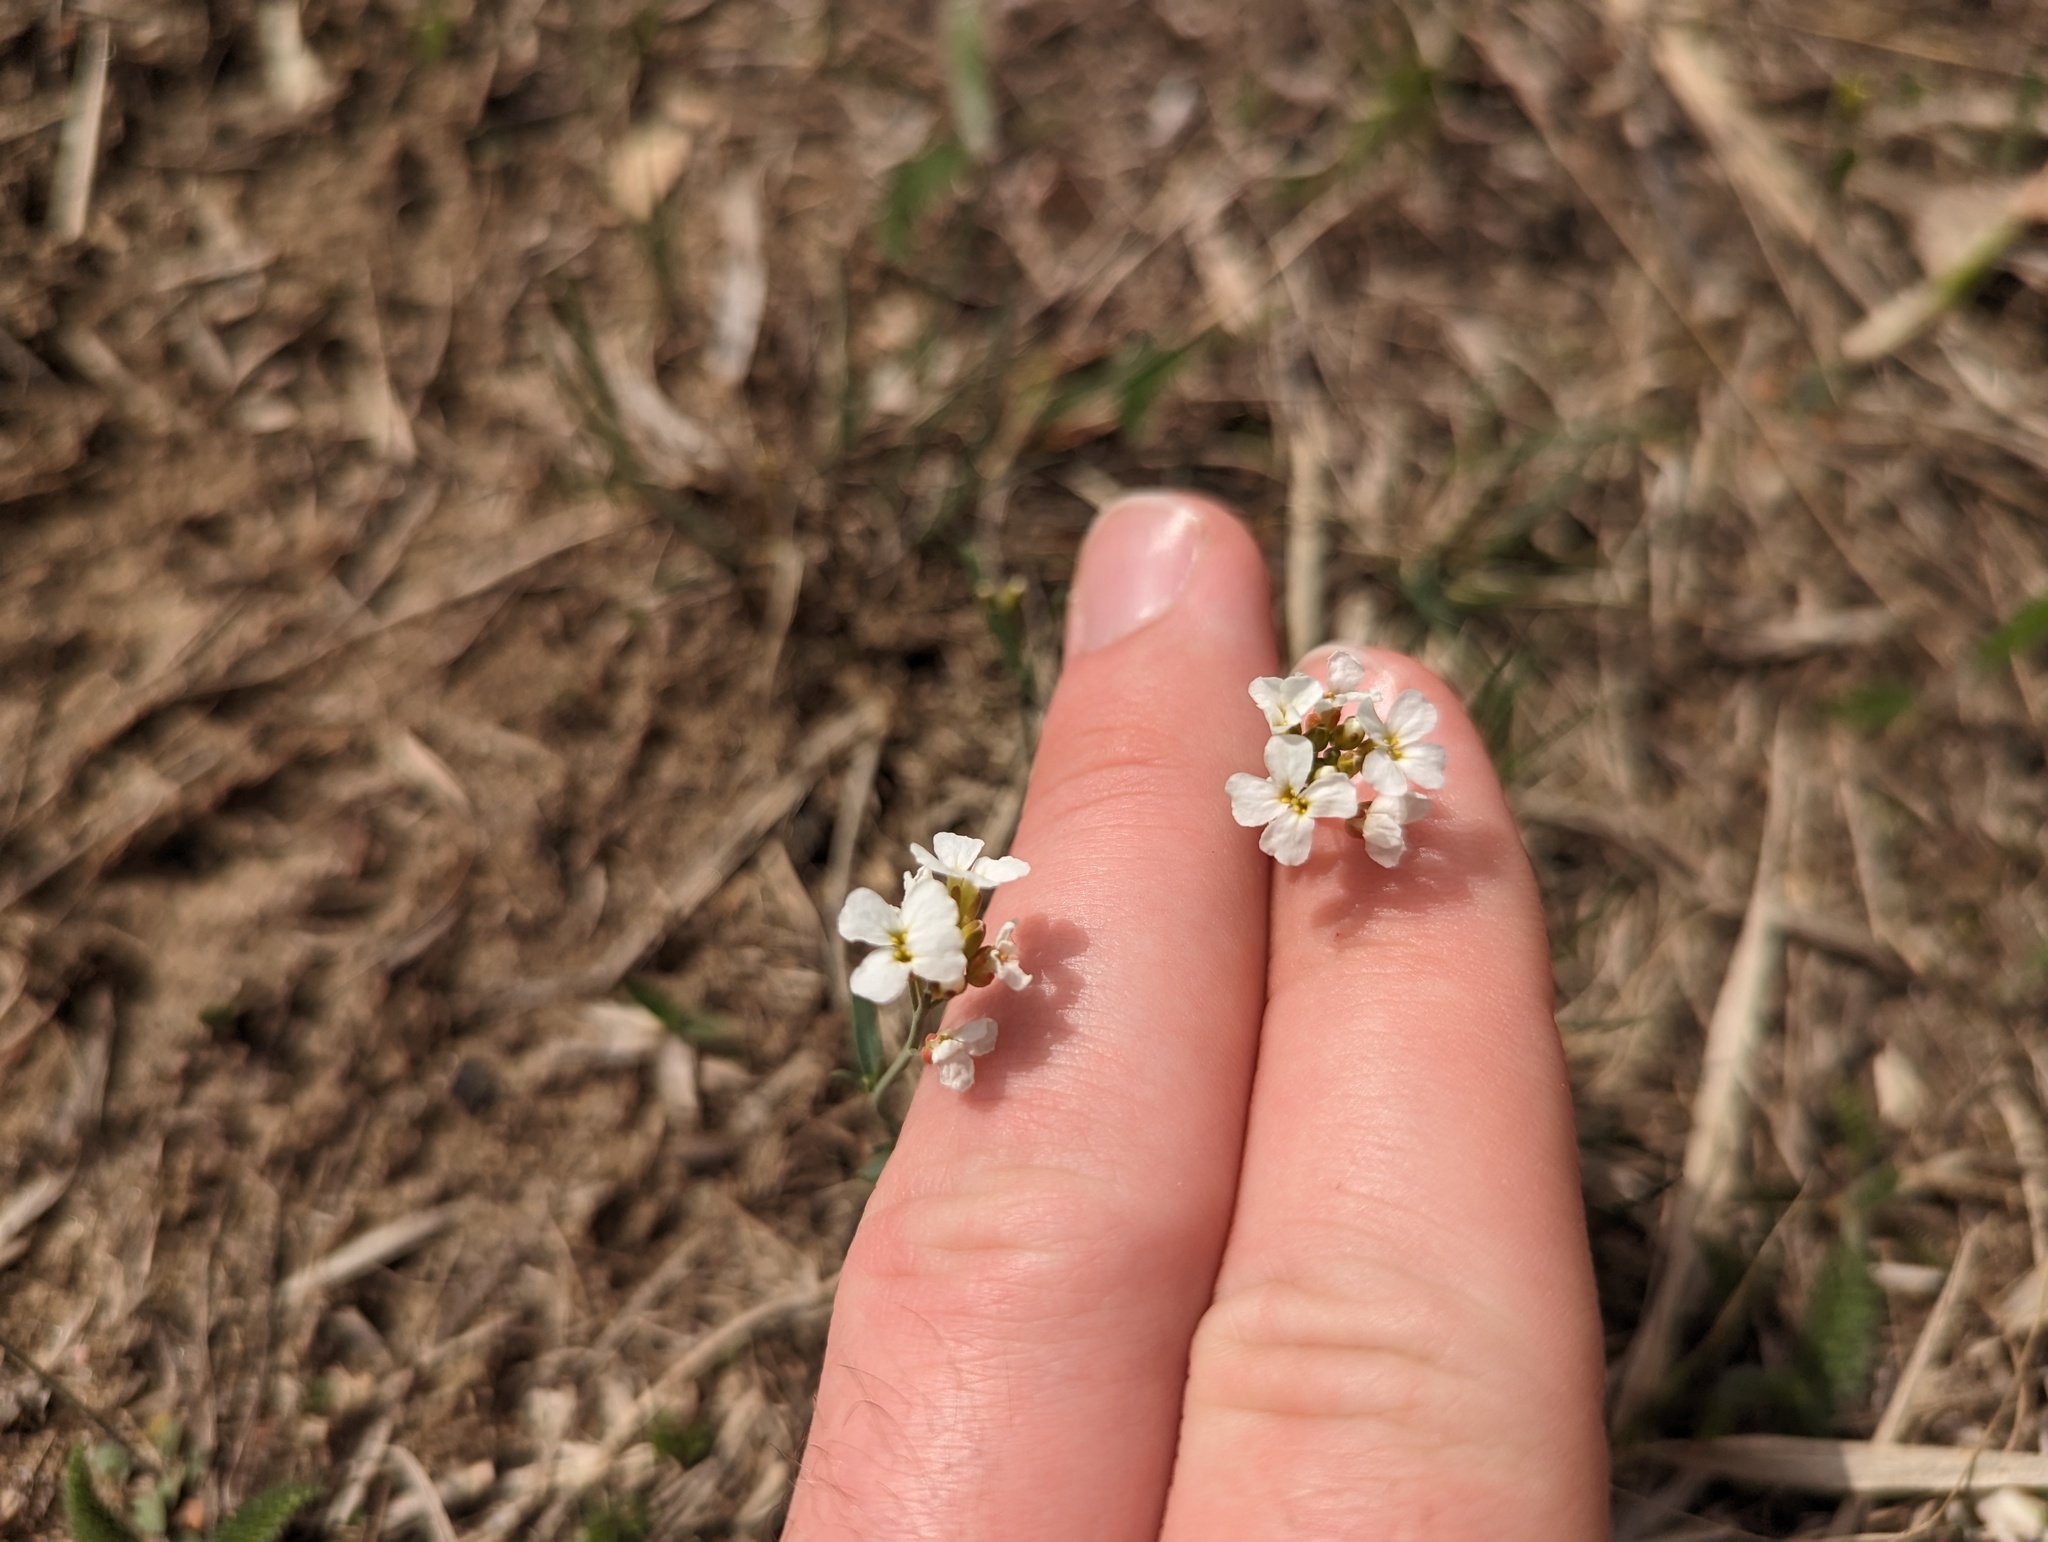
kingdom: Plantae
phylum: Tracheophyta
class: Magnoliopsida
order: Brassicales
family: Brassicaceae
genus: Arabidopsis
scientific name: Arabidopsis lyrata
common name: Lyrate rockcress
